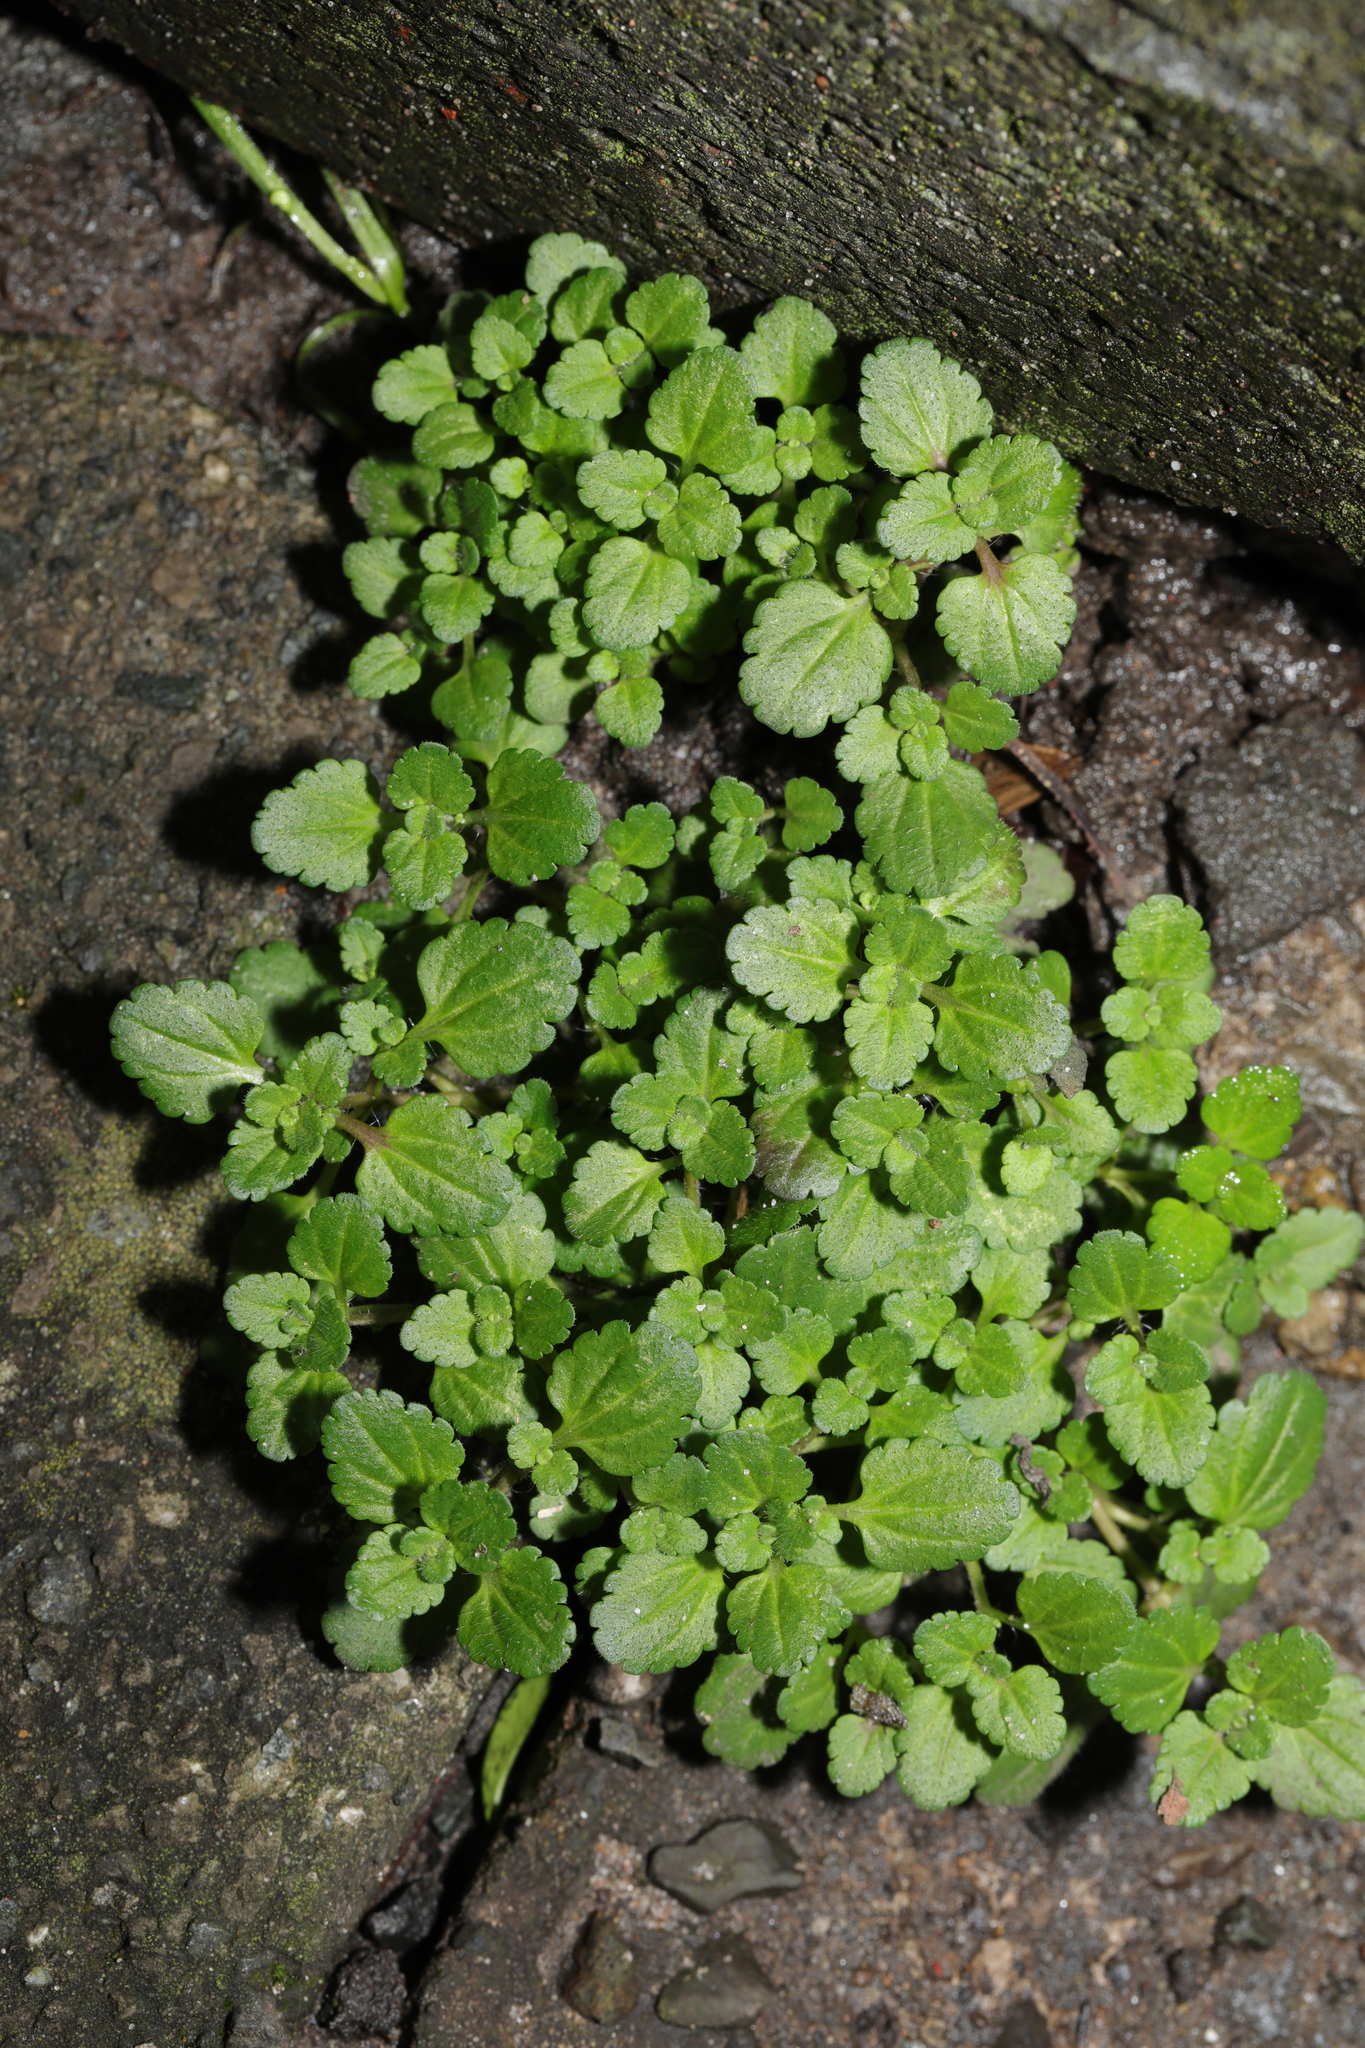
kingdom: Plantae
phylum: Tracheophyta
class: Magnoliopsida
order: Lamiales
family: Plantaginaceae
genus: Veronica
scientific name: Veronica arvensis
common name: Corn speedwell
